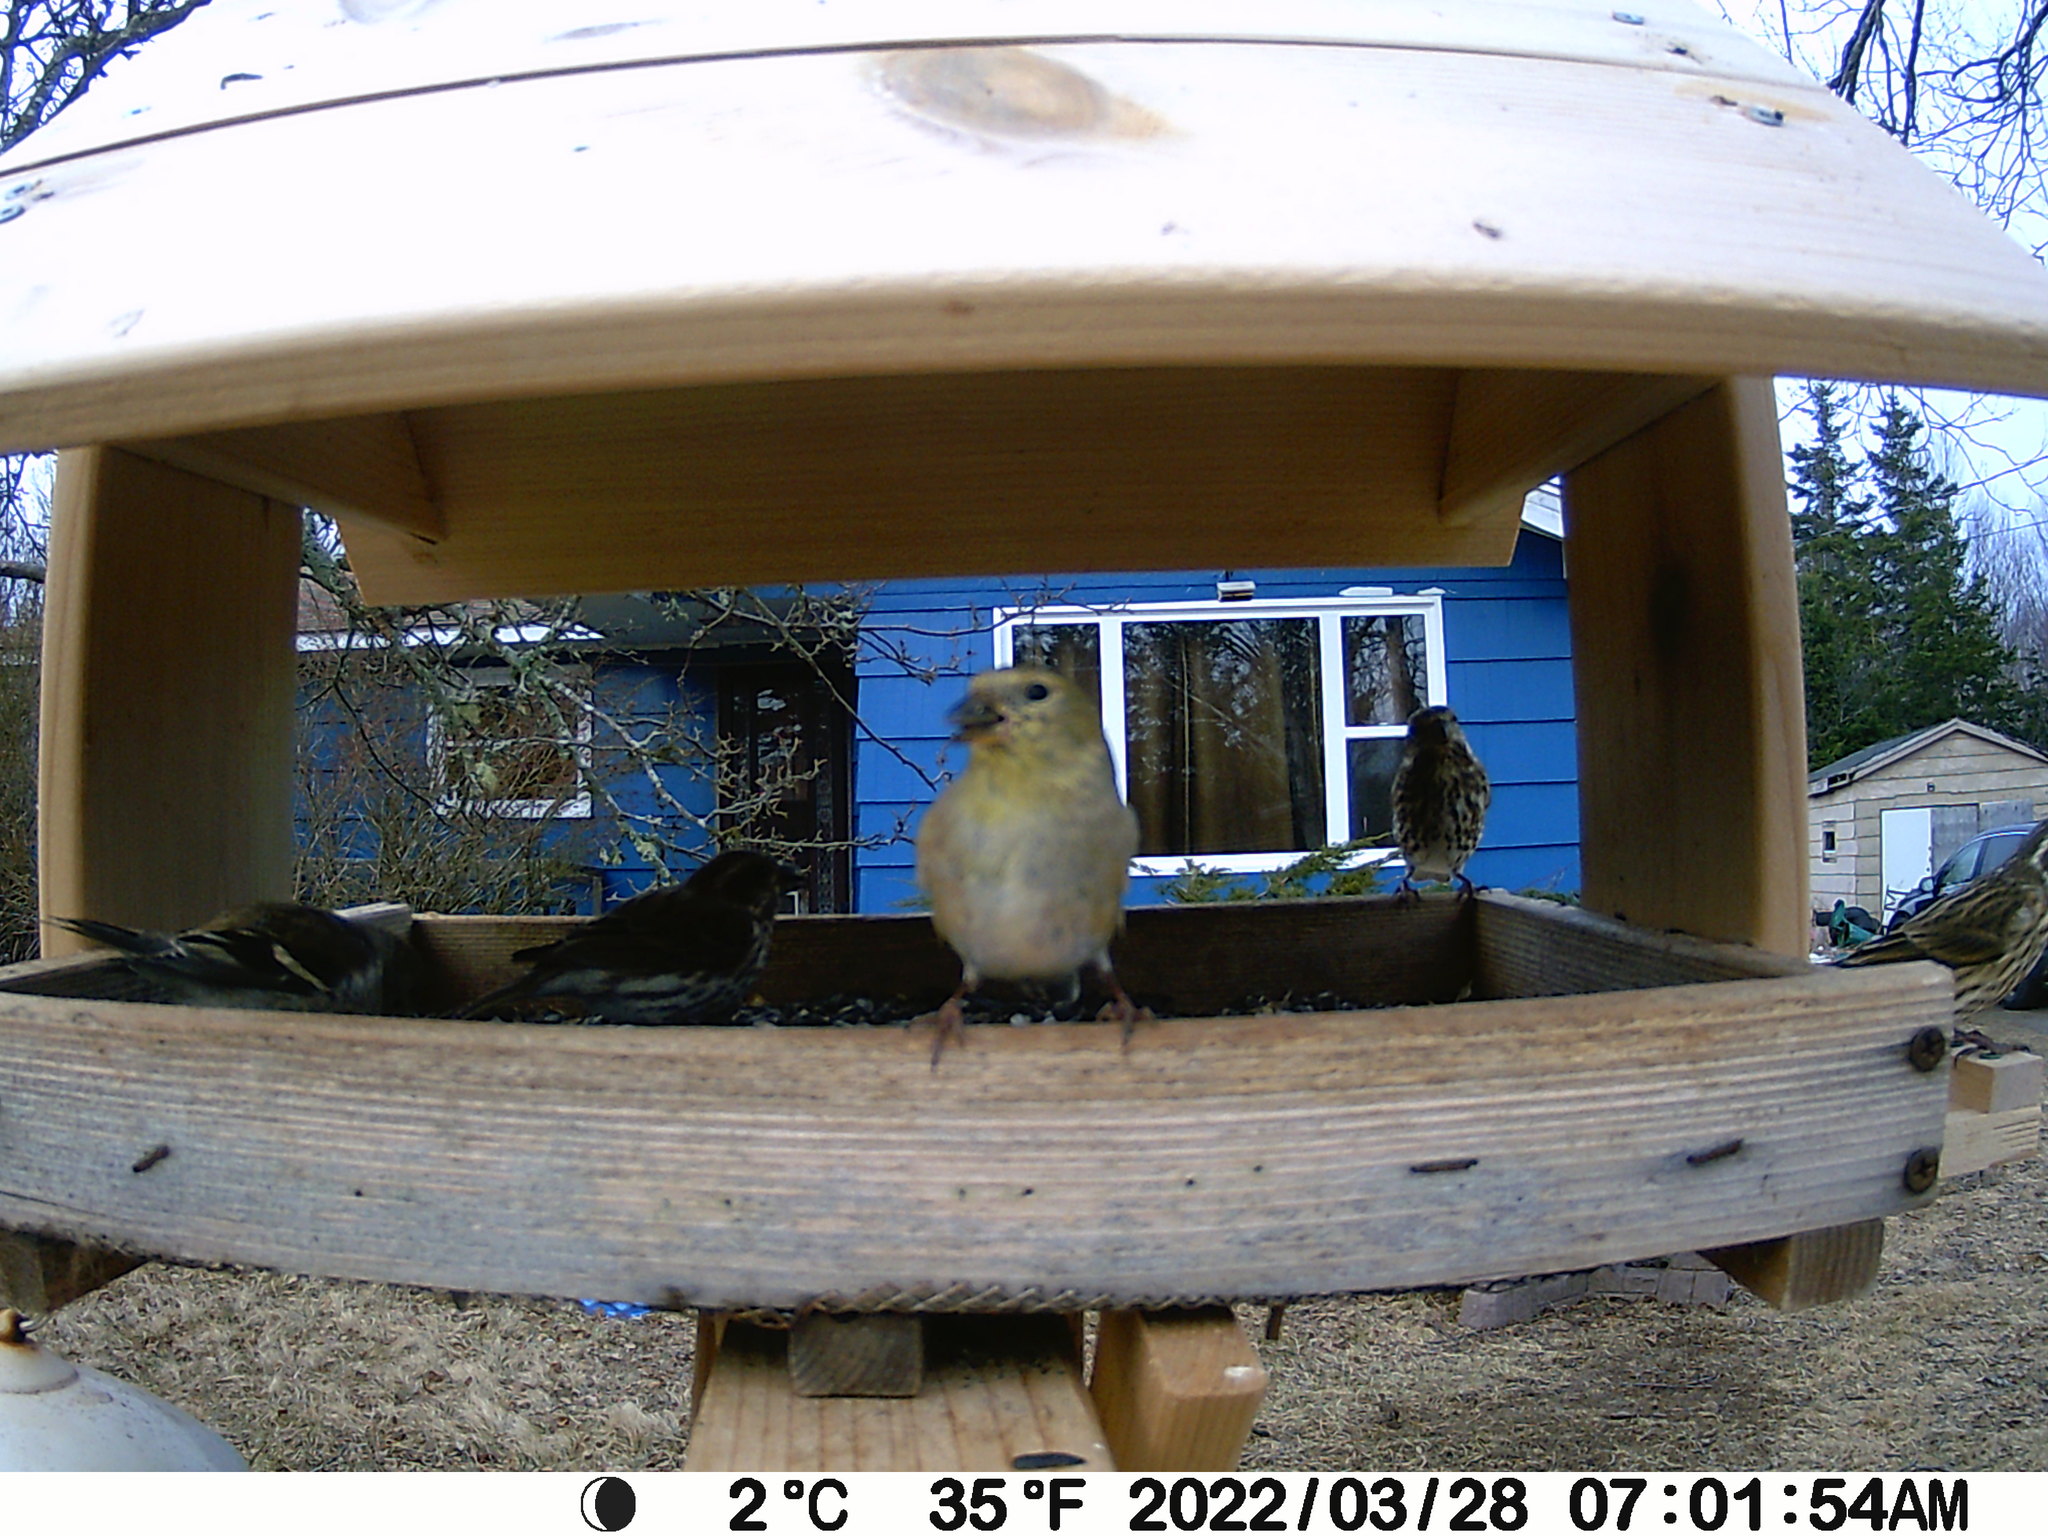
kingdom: Animalia
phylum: Chordata
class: Aves
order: Passeriformes
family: Fringillidae
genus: Haemorhous
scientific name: Haemorhous purpureus
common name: Purple finch
